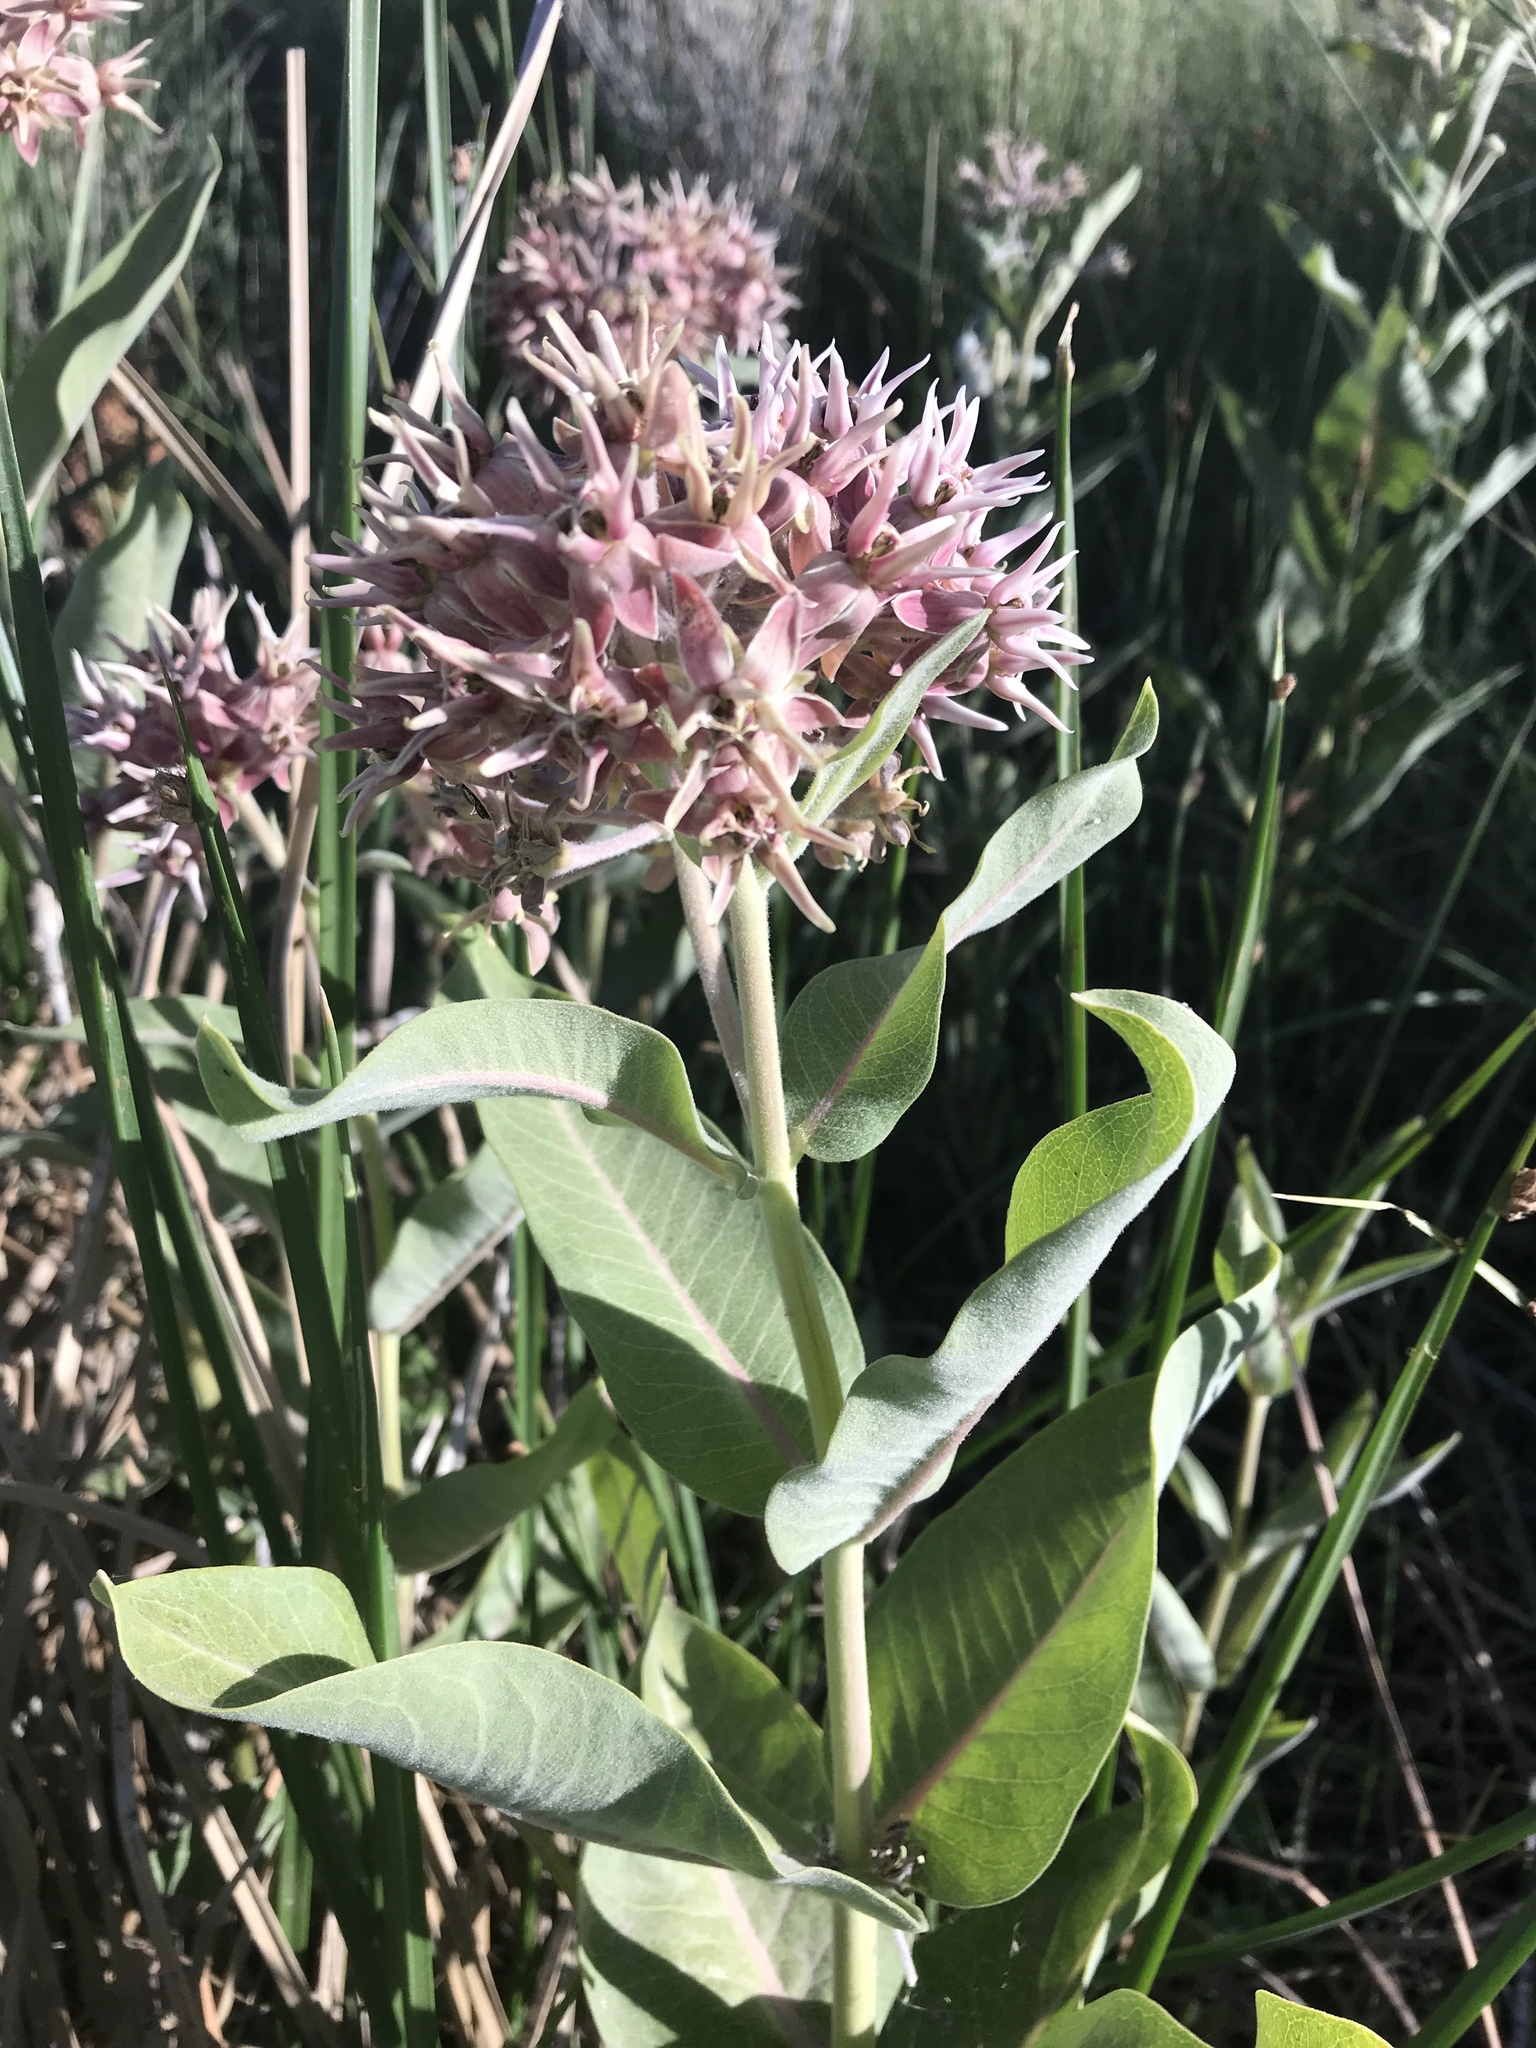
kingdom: Plantae
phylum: Tracheophyta
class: Magnoliopsida
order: Gentianales
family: Apocynaceae
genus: Asclepias
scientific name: Asclepias speciosa
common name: Showy milkweed
